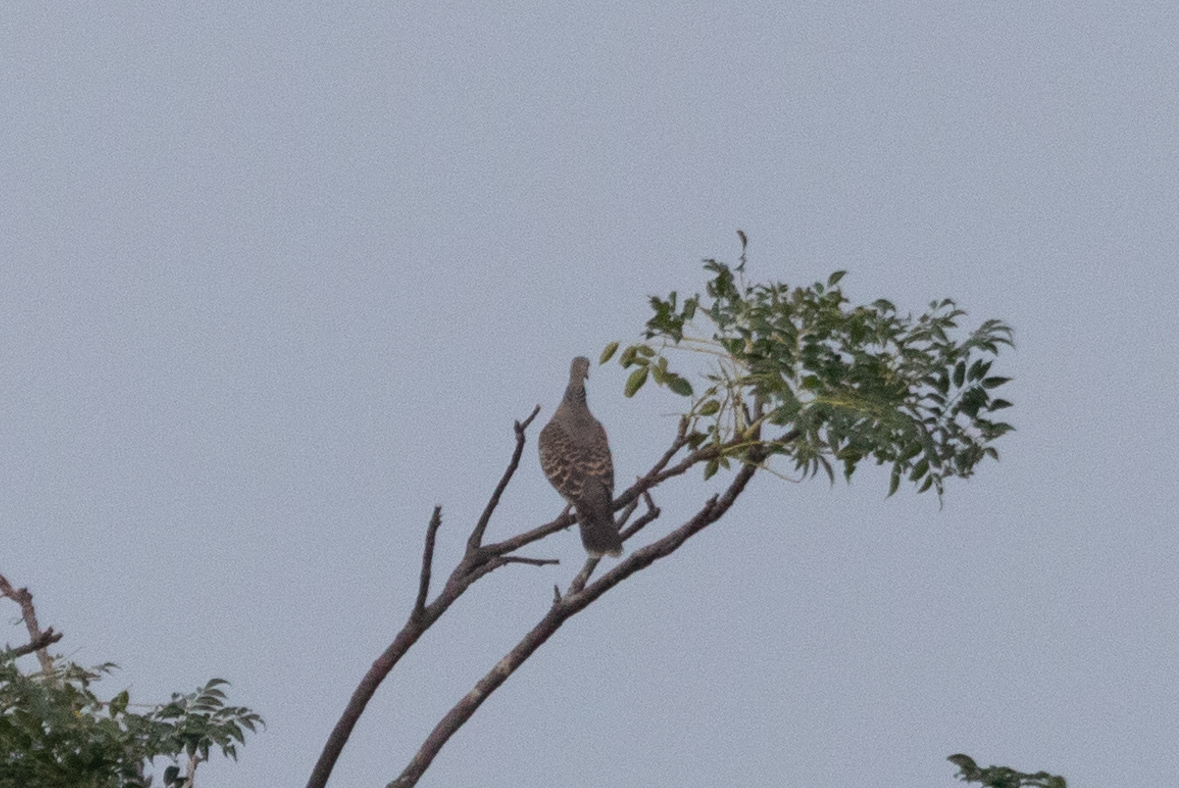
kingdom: Animalia
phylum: Chordata
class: Aves
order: Columbiformes
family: Columbidae
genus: Streptopelia
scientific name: Streptopelia orientalis
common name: Oriental turtle dove
